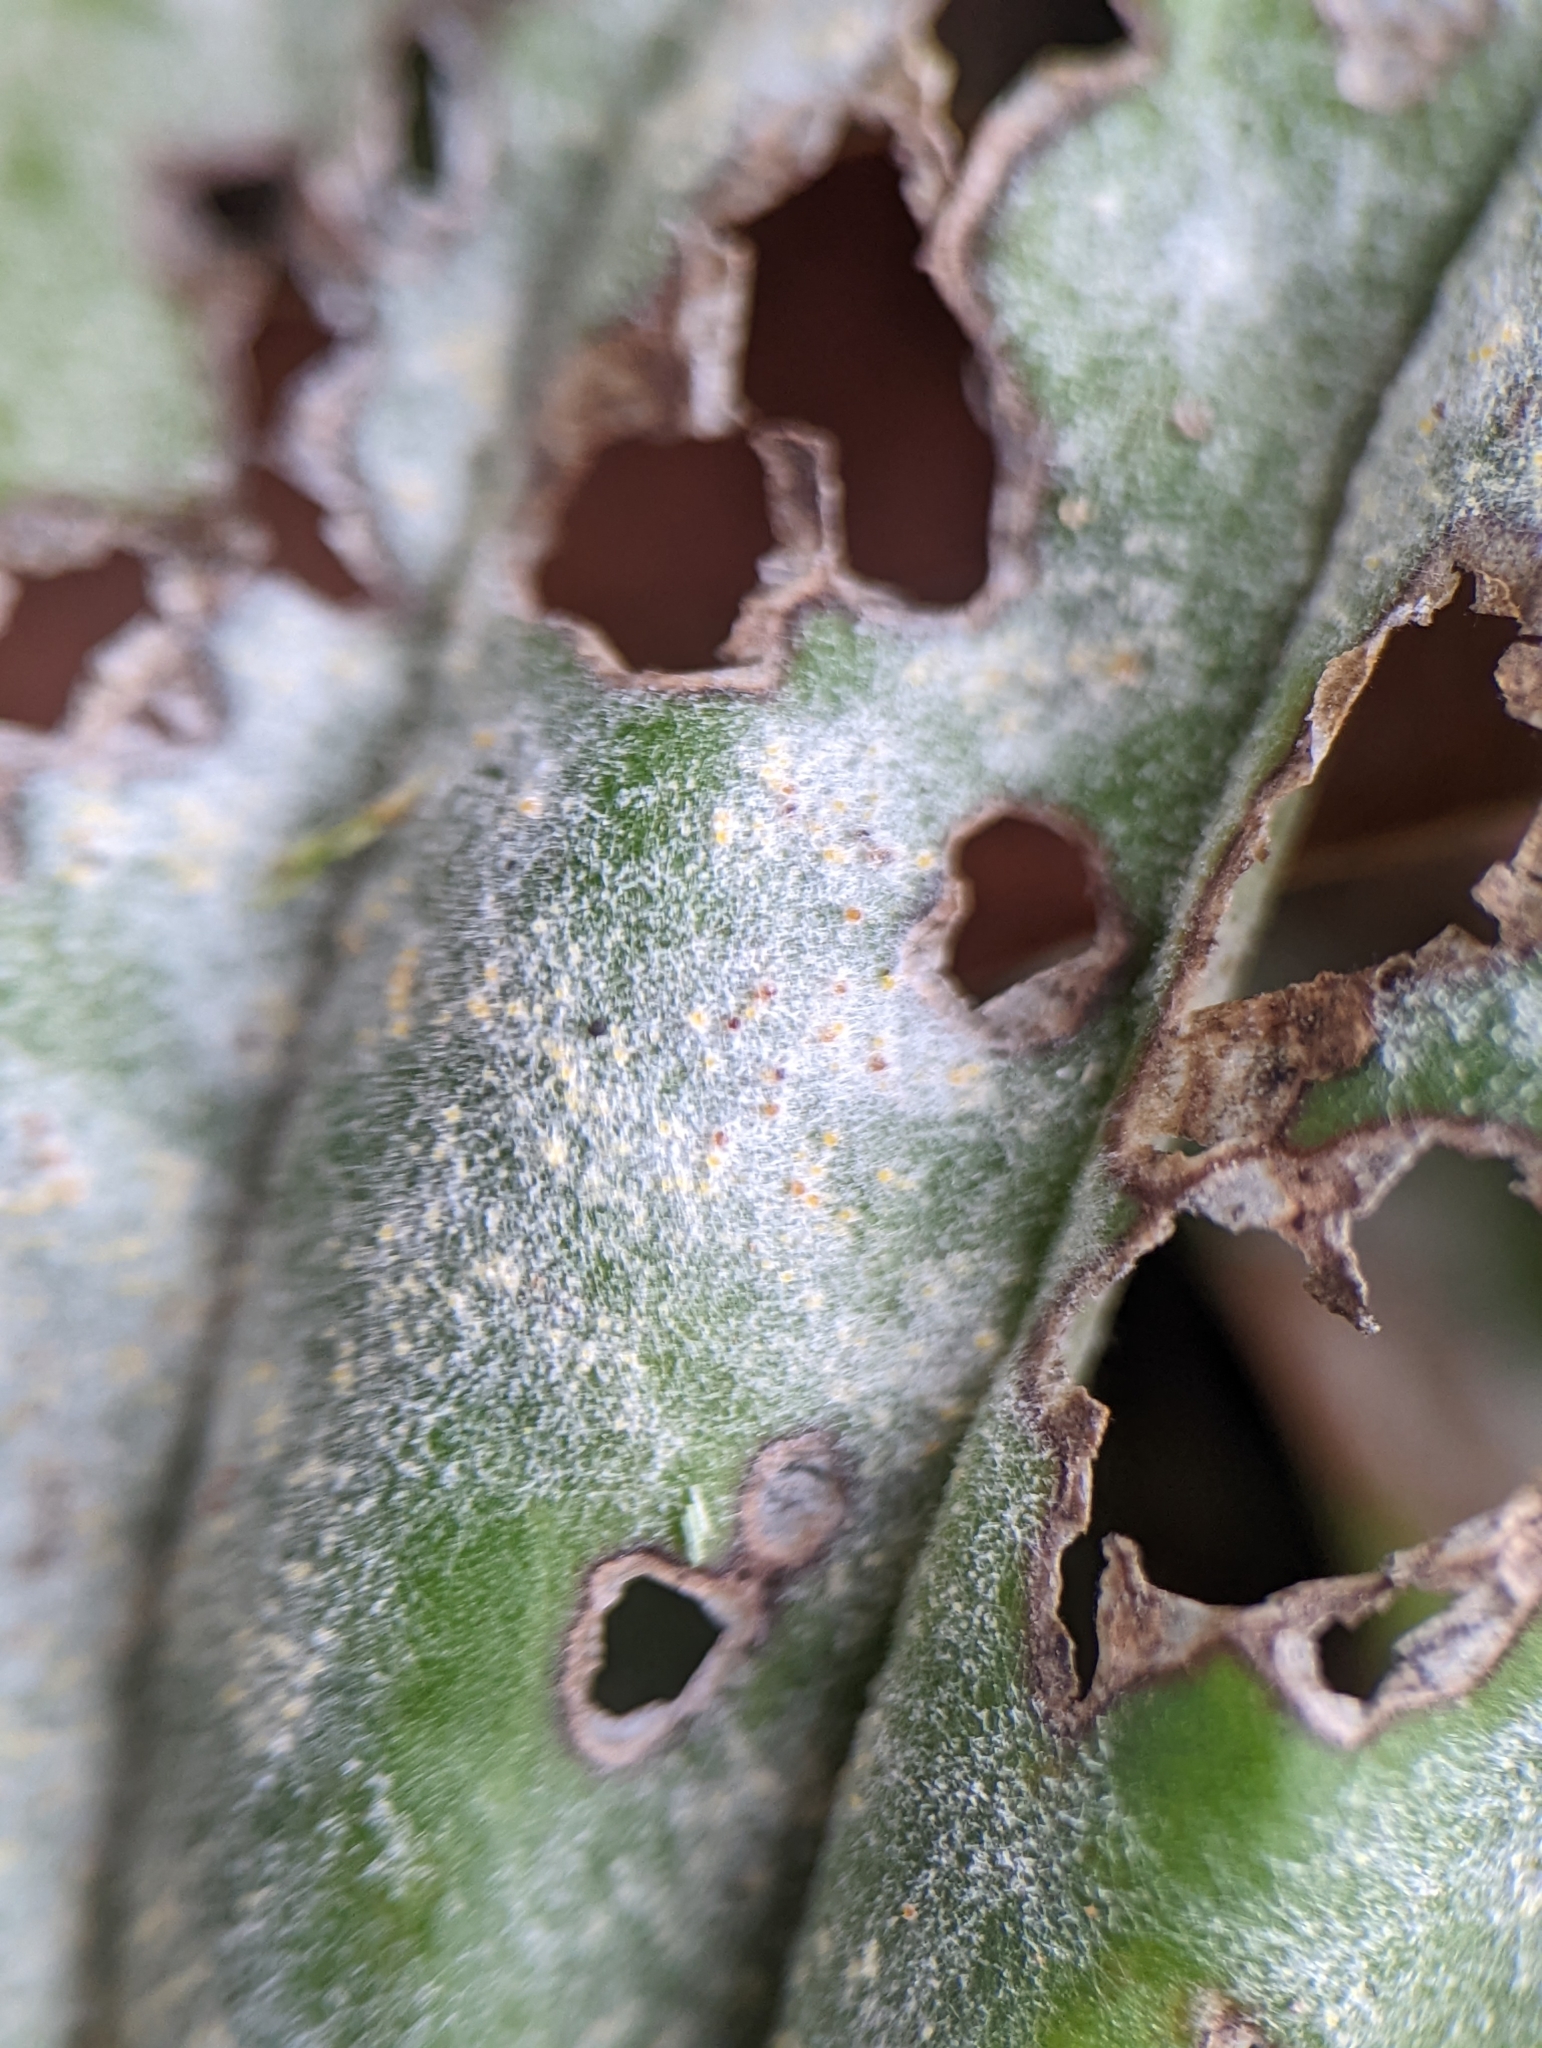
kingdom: Fungi
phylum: Ascomycota
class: Leotiomycetes
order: Helotiales
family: Erysiphaceae
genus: Golovinomyces
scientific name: Golovinomyces sordidus
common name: Plantain mildew
